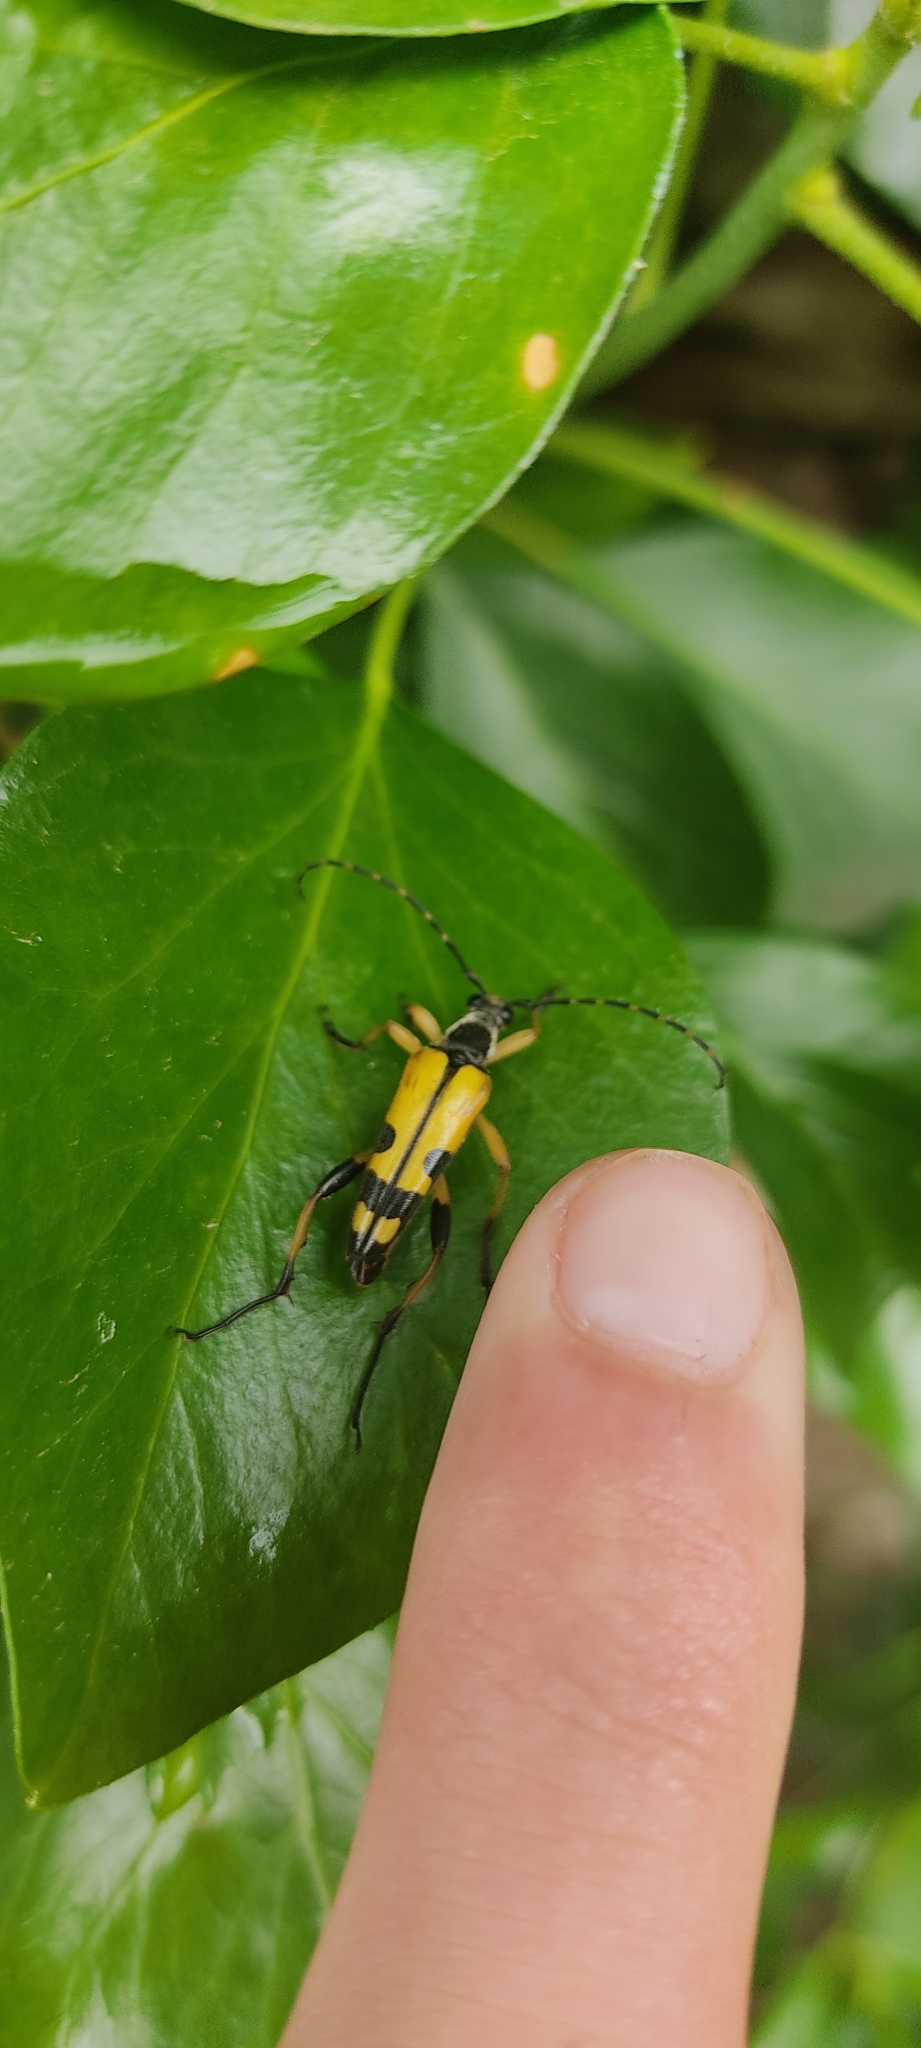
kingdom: Animalia
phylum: Arthropoda
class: Insecta
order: Coleoptera
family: Cerambycidae
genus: Rutpela
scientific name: Rutpela maculata
